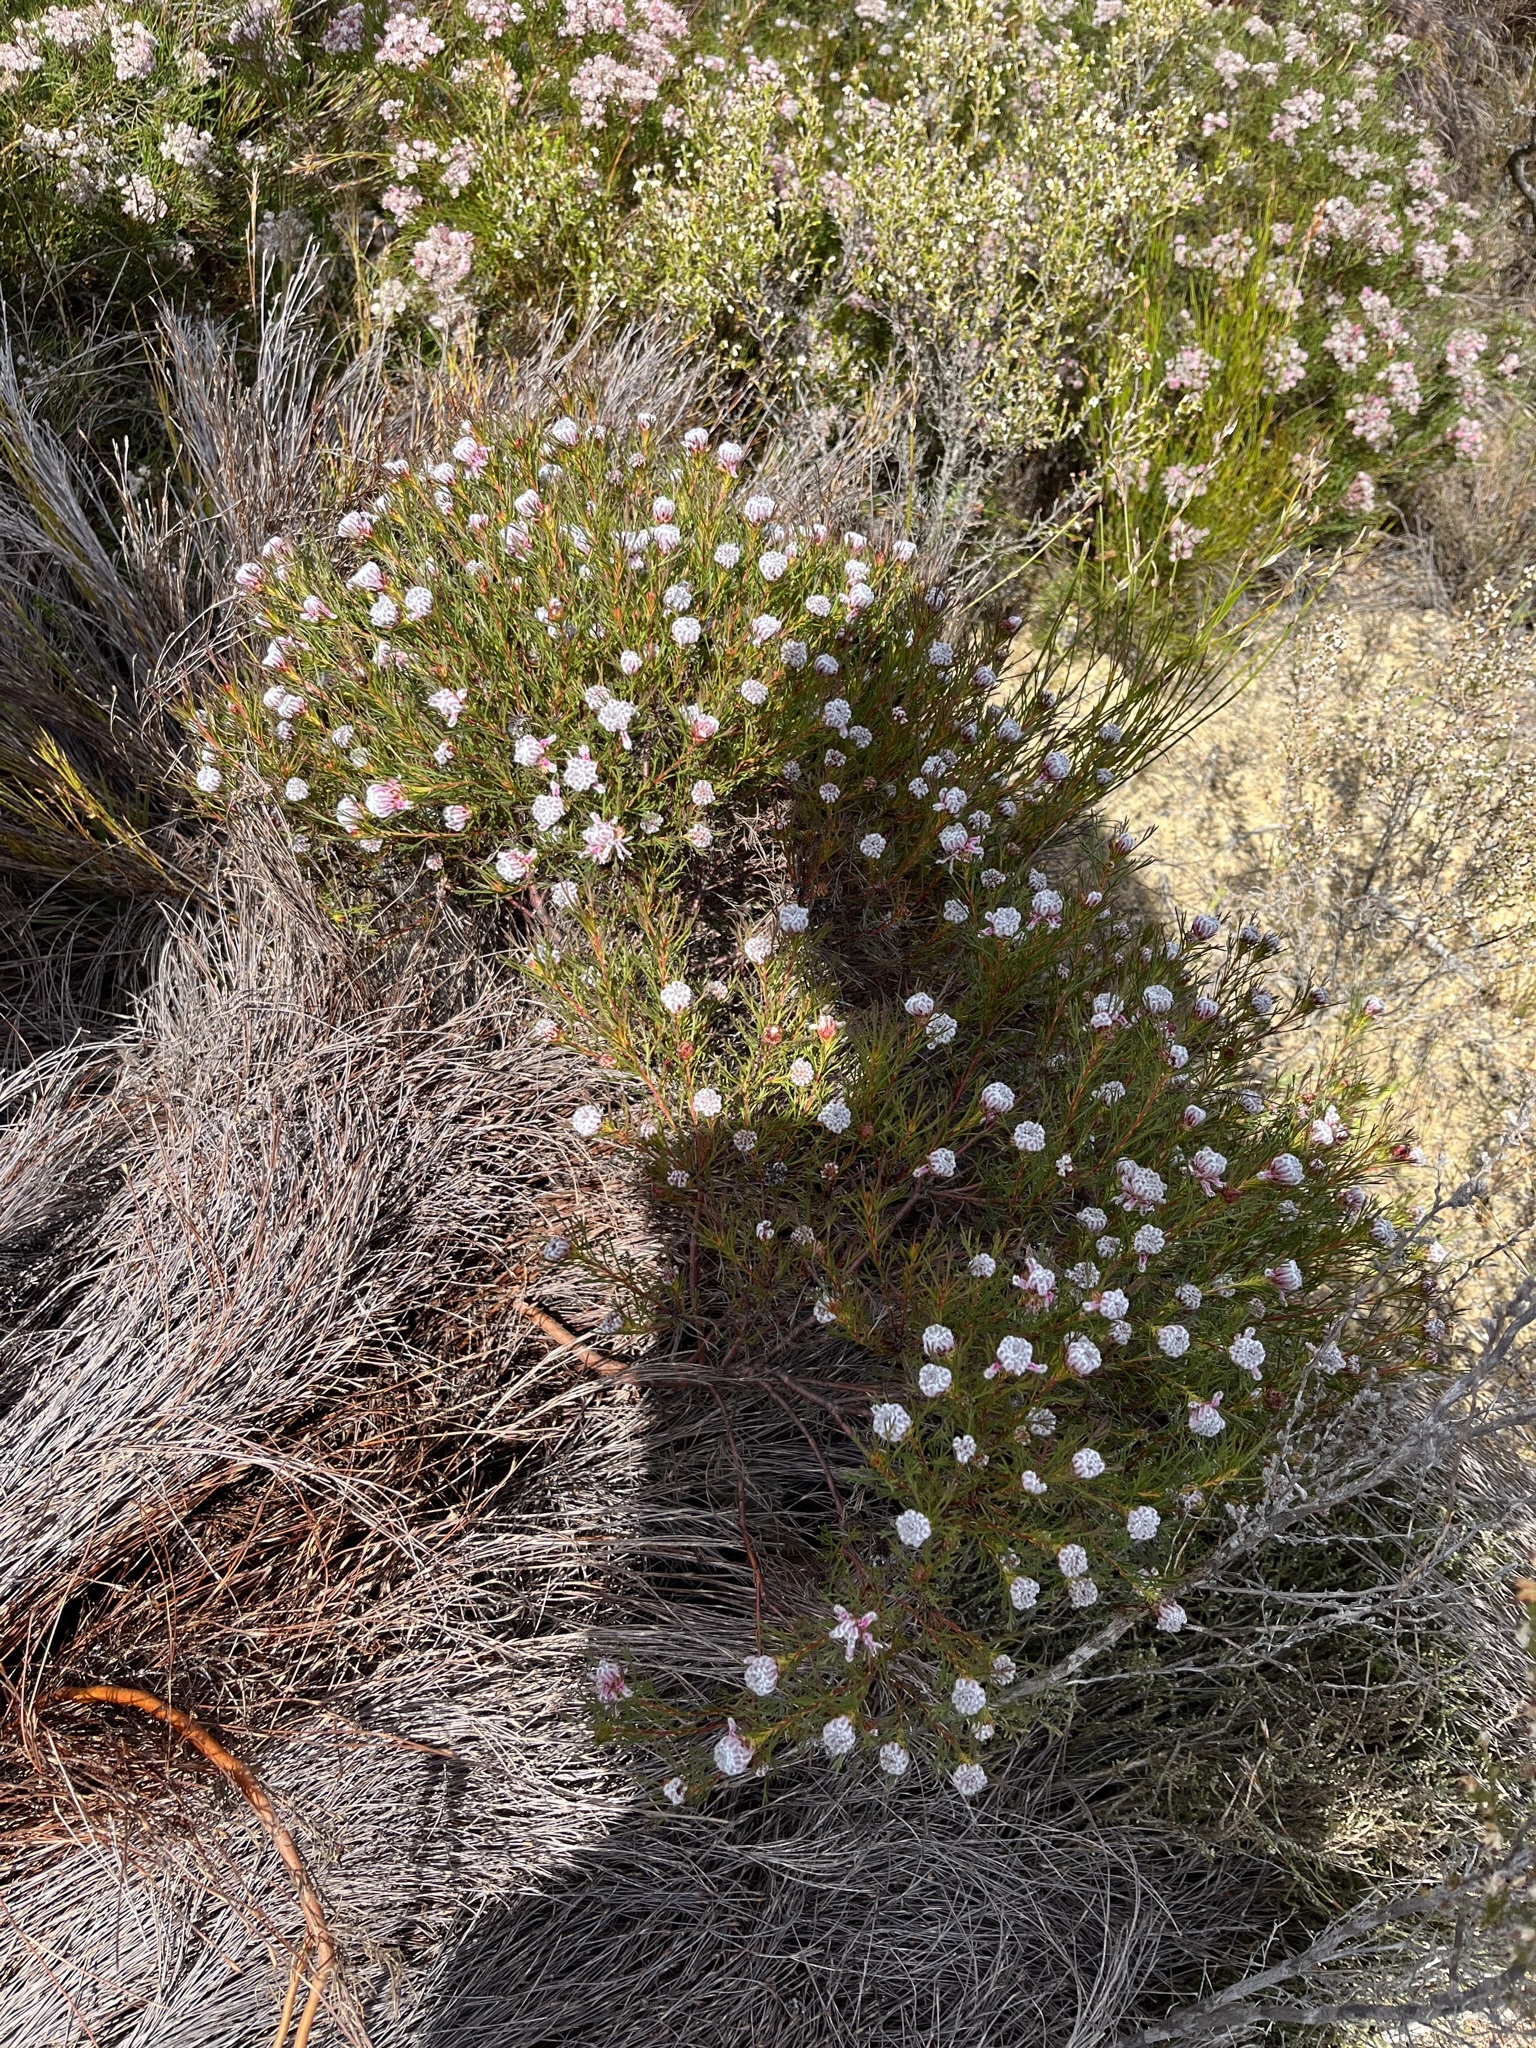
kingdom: Plantae
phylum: Tracheophyta
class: Magnoliopsida
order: Proteales
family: Proteaceae
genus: Serruria
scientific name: Serruria nervosa
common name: Fluted spiderhead
